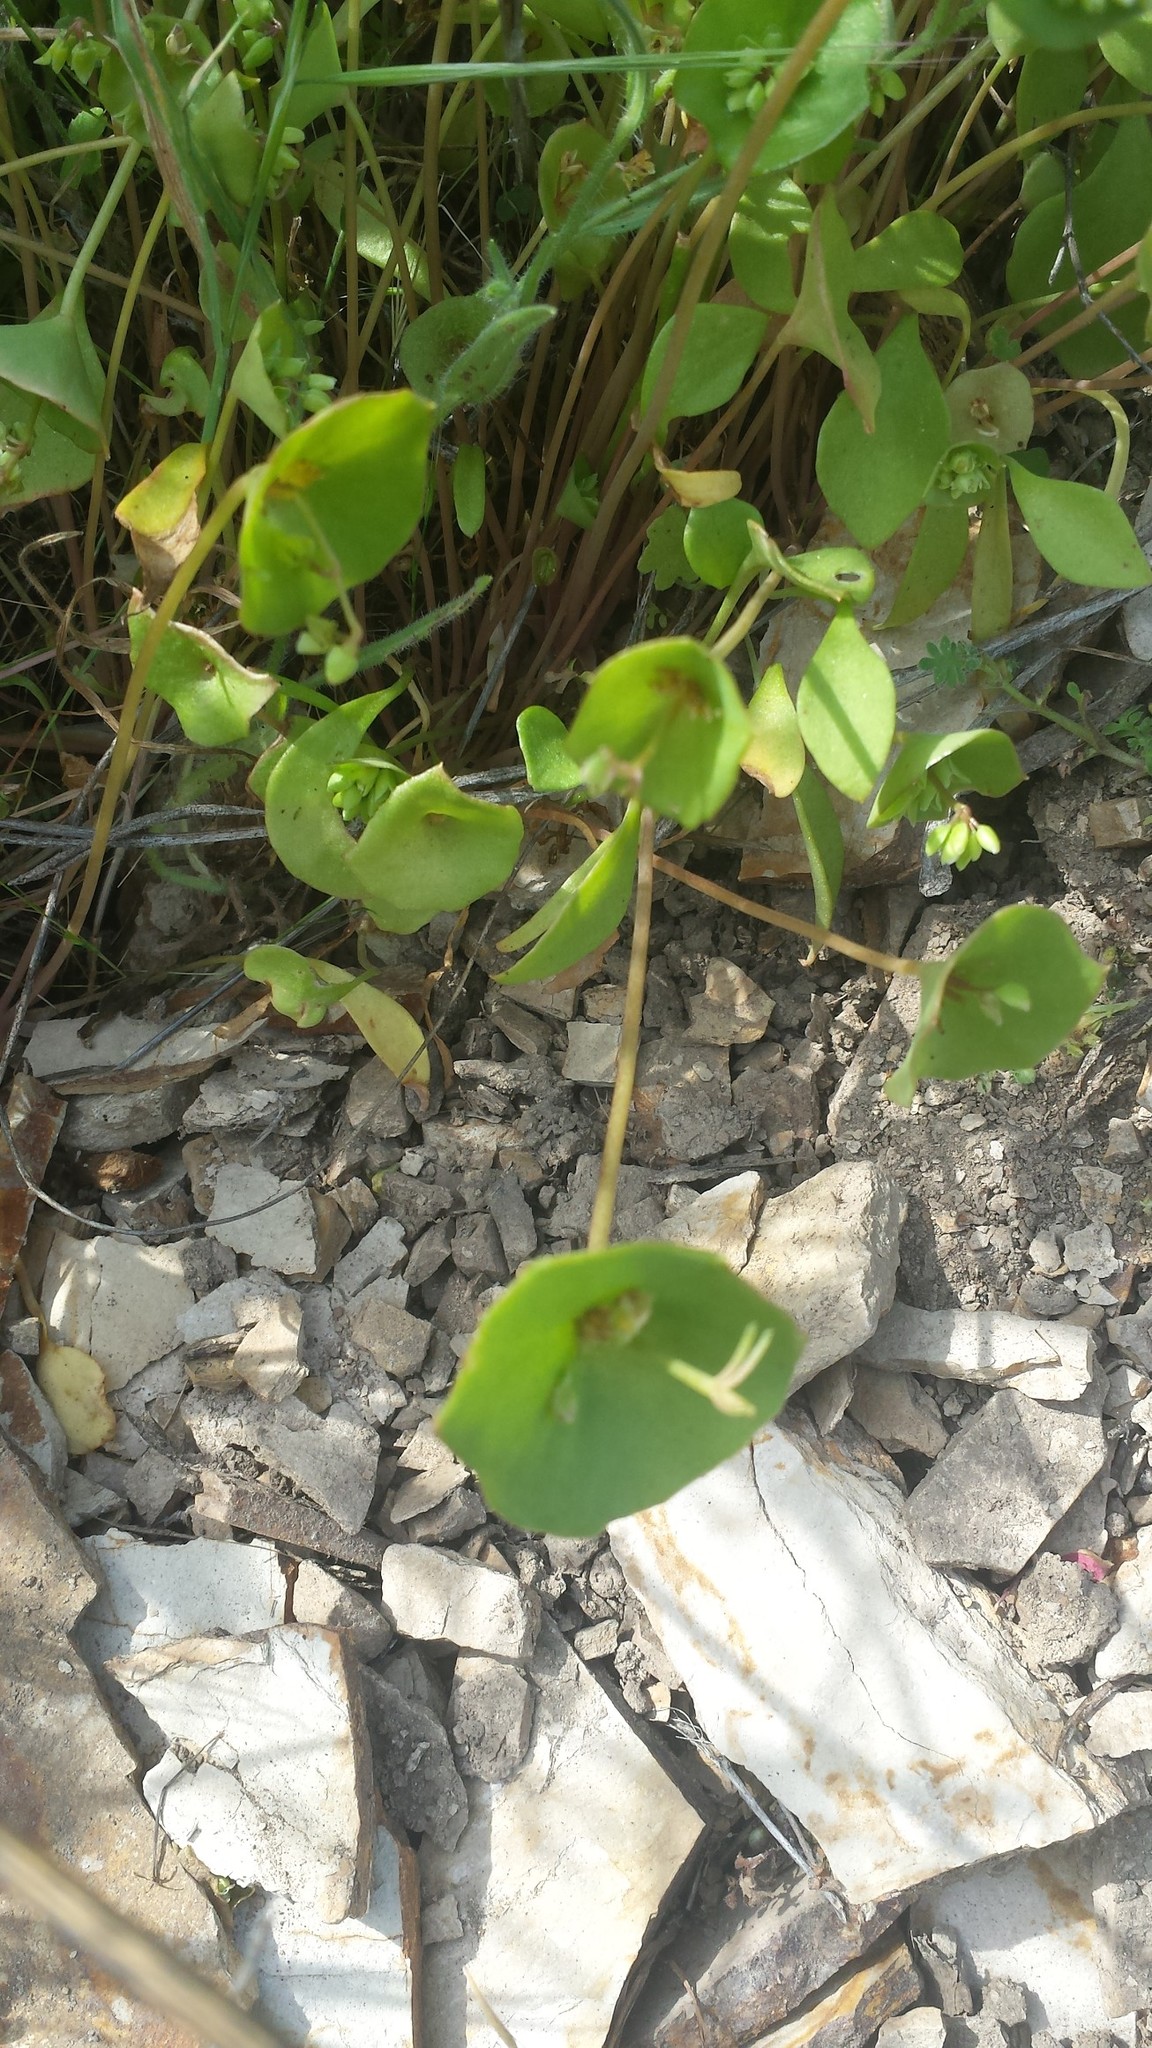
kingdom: Plantae
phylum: Tracheophyta
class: Magnoliopsida
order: Caryophyllales
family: Montiaceae
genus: Claytonia
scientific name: Claytonia perfoliata
